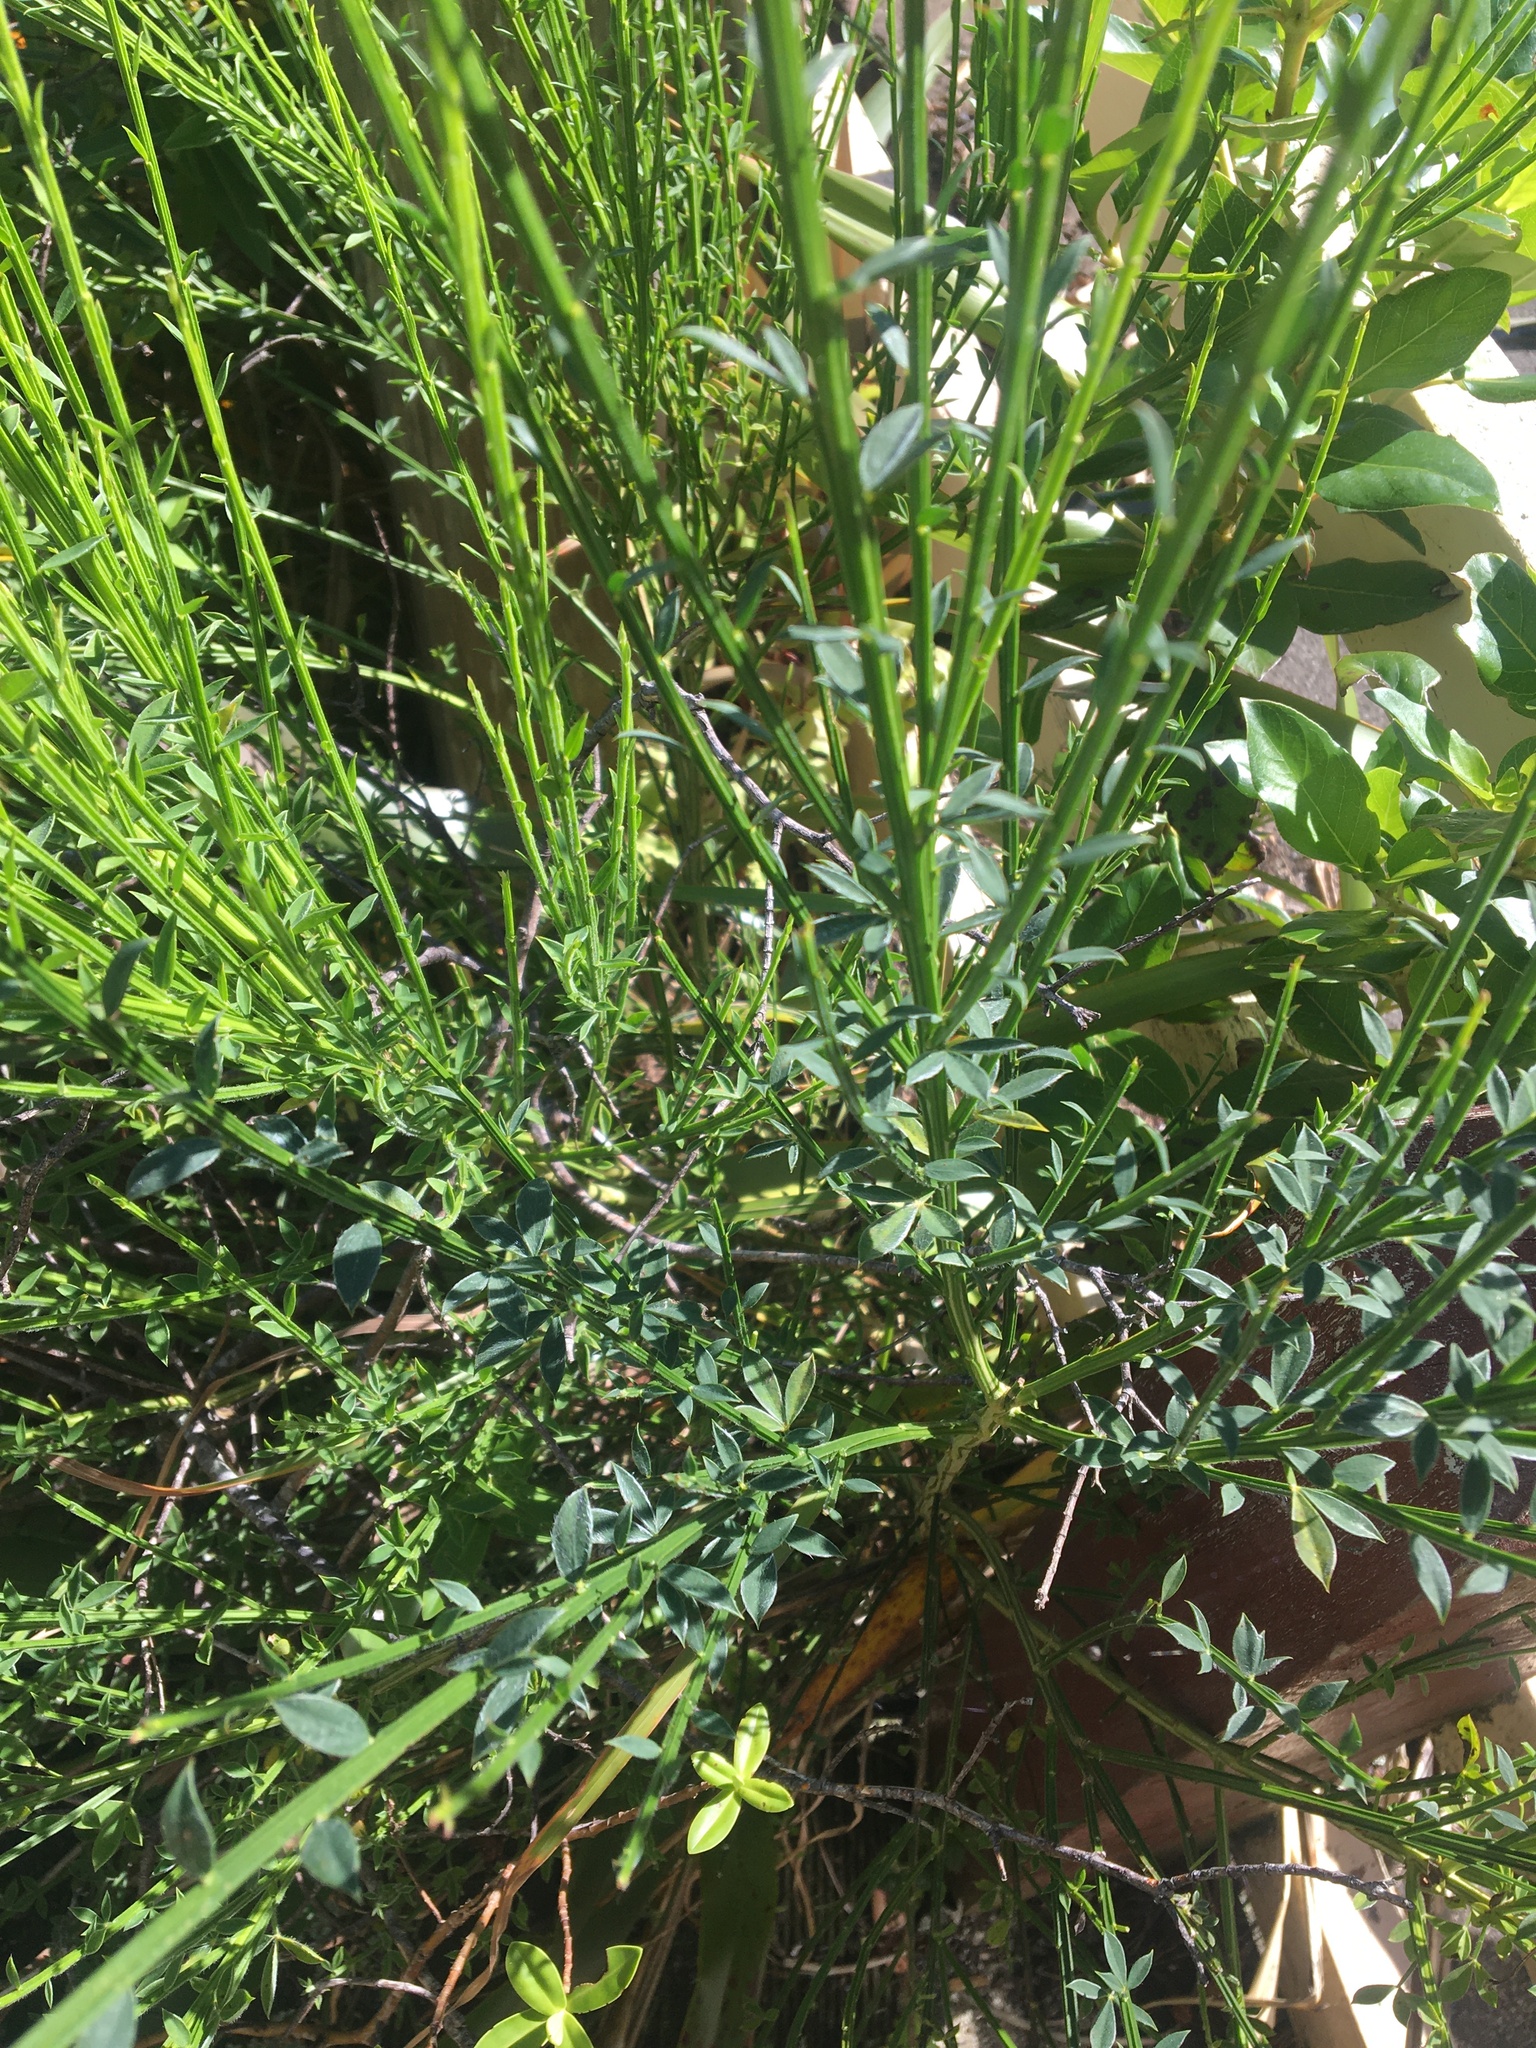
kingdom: Plantae
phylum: Tracheophyta
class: Magnoliopsida
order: Fabales
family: Fabaceae
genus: Cytisus
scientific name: Cytisus scoparius
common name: Scotch broom
